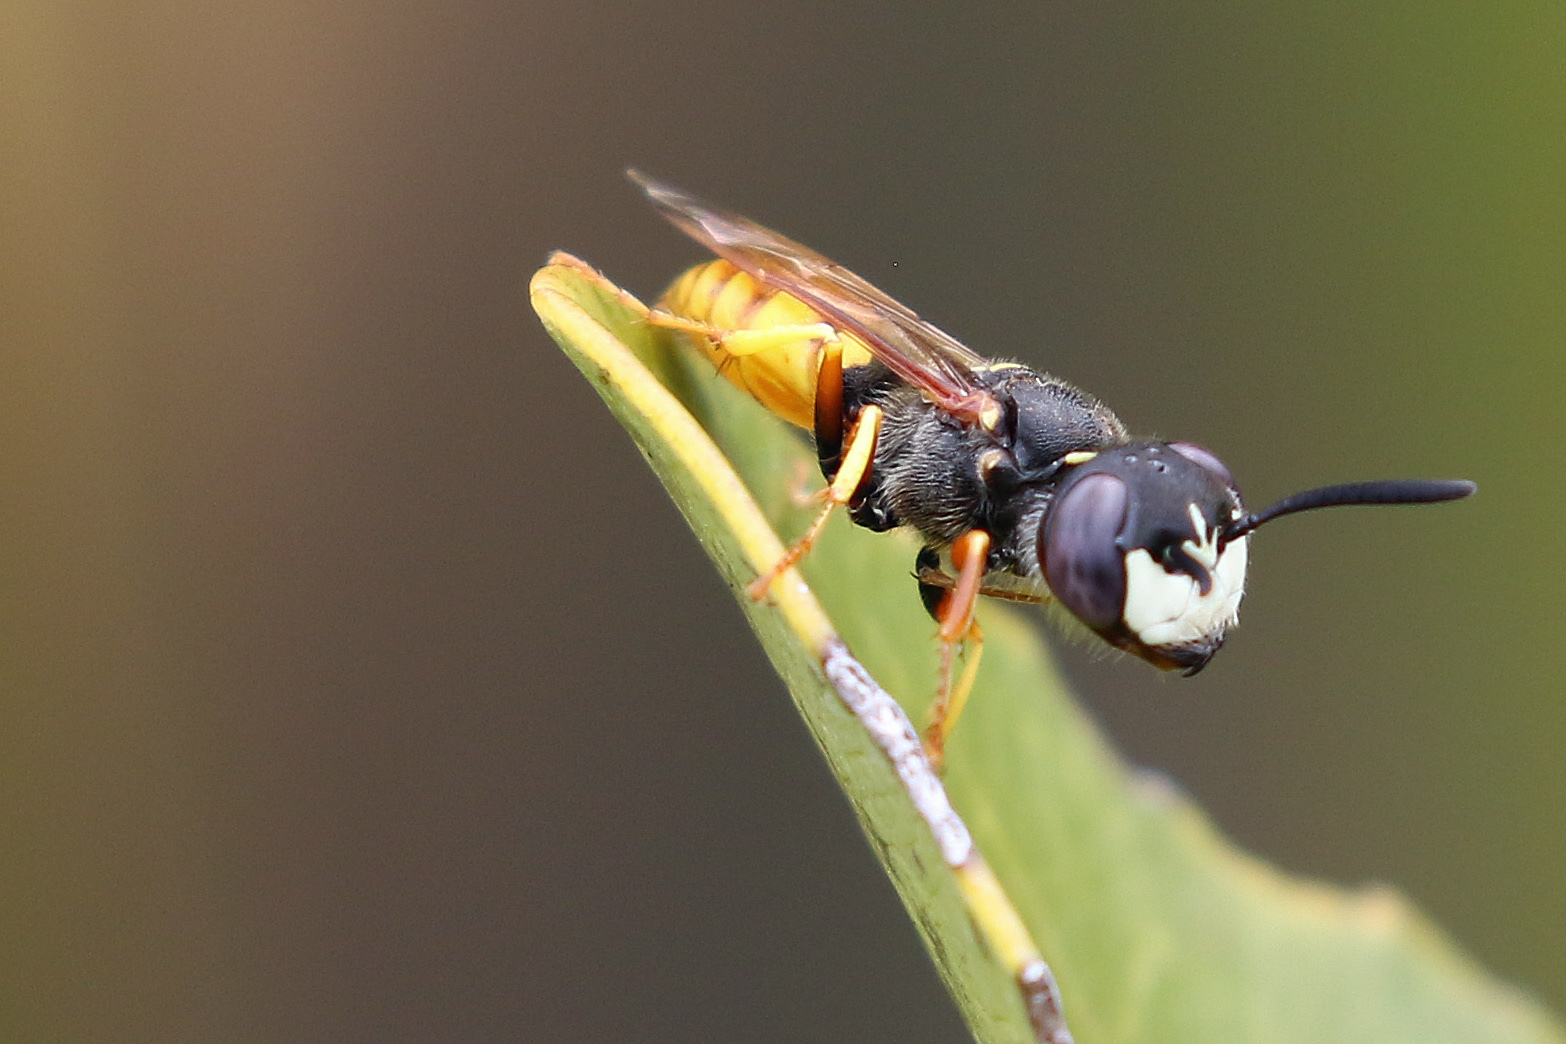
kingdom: Animalia
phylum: Arthropoda
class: Insecta
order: Hymenoptera
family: Crabronidae
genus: Philanthus
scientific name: Philanthus triangulum
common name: Bee wolf
